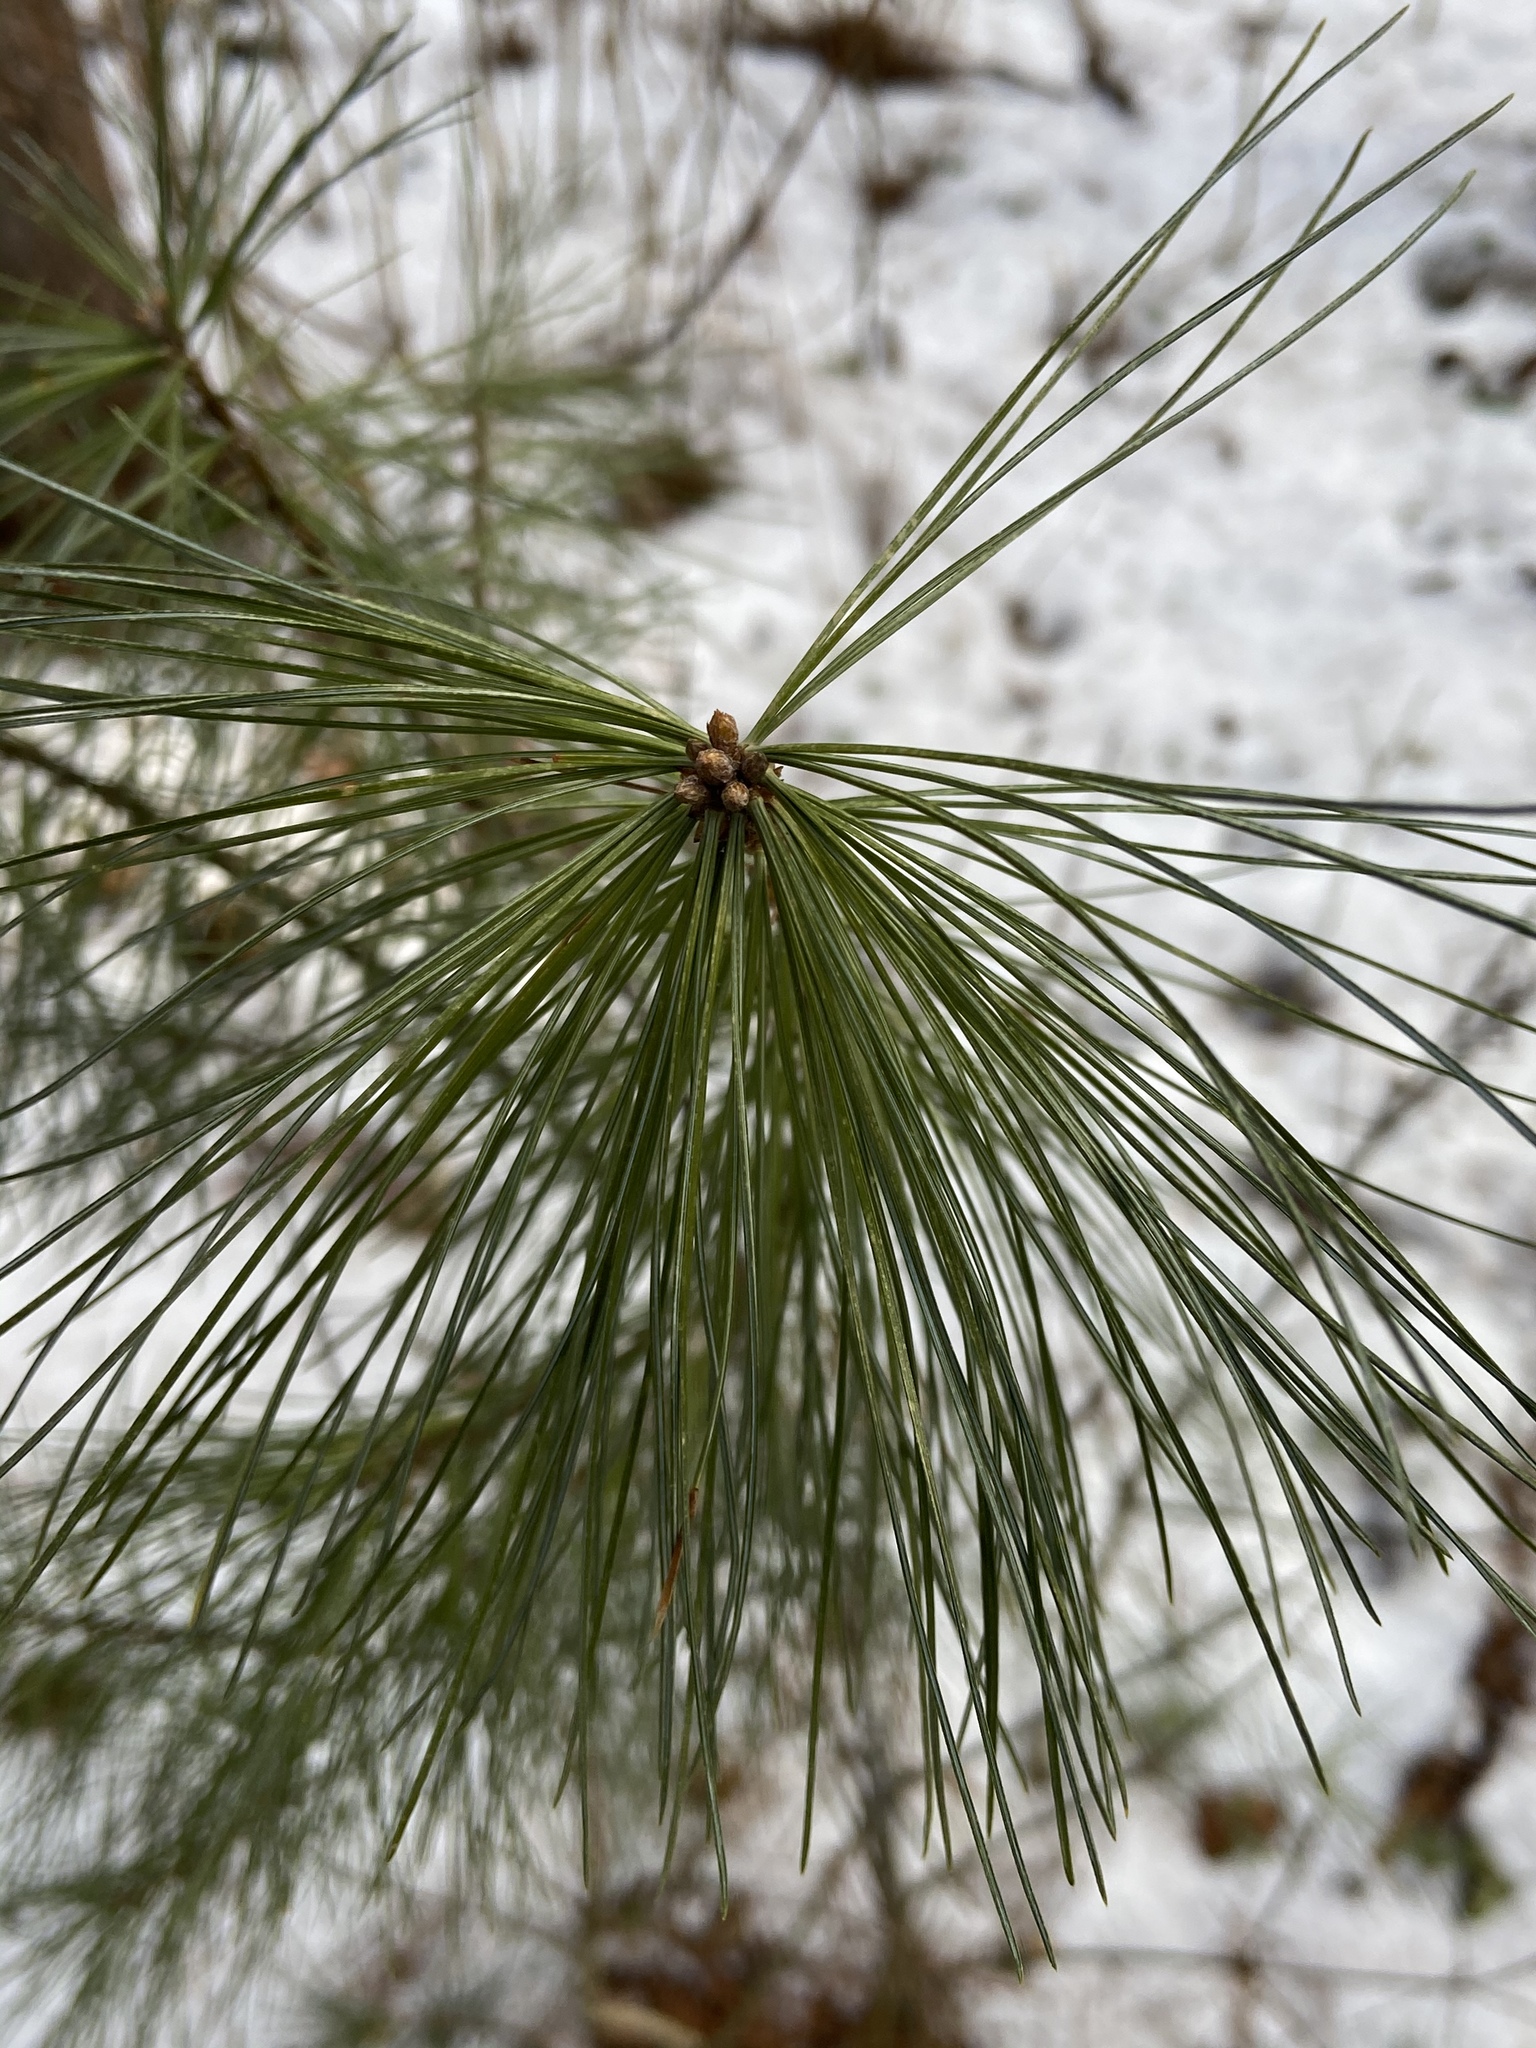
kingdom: Plantae
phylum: Tracheophyta
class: Pinopsida
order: Pinales
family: Pinaceae
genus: Pinus
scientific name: Pinus strobus
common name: Weymouth pine
